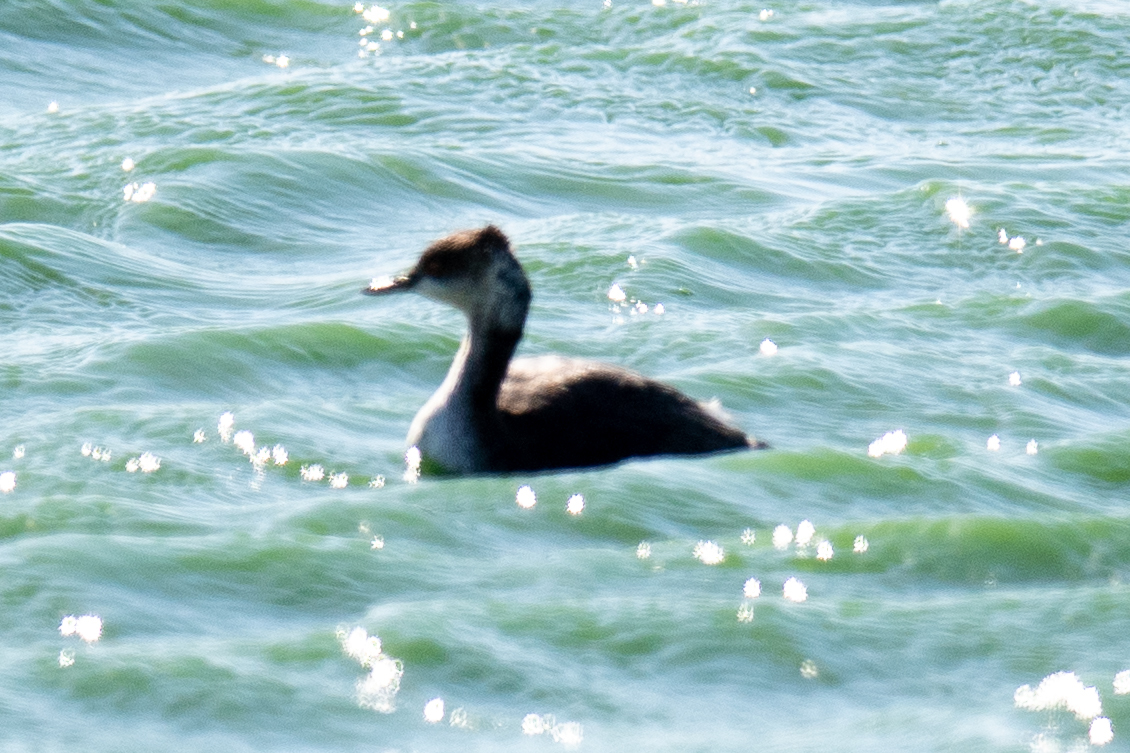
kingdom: Animalia
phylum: Chordata
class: Aves
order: Podicipediformes
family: Podicipedidae
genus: Podiceps
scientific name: Podiceps nigricollis
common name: Black-necked grebe
